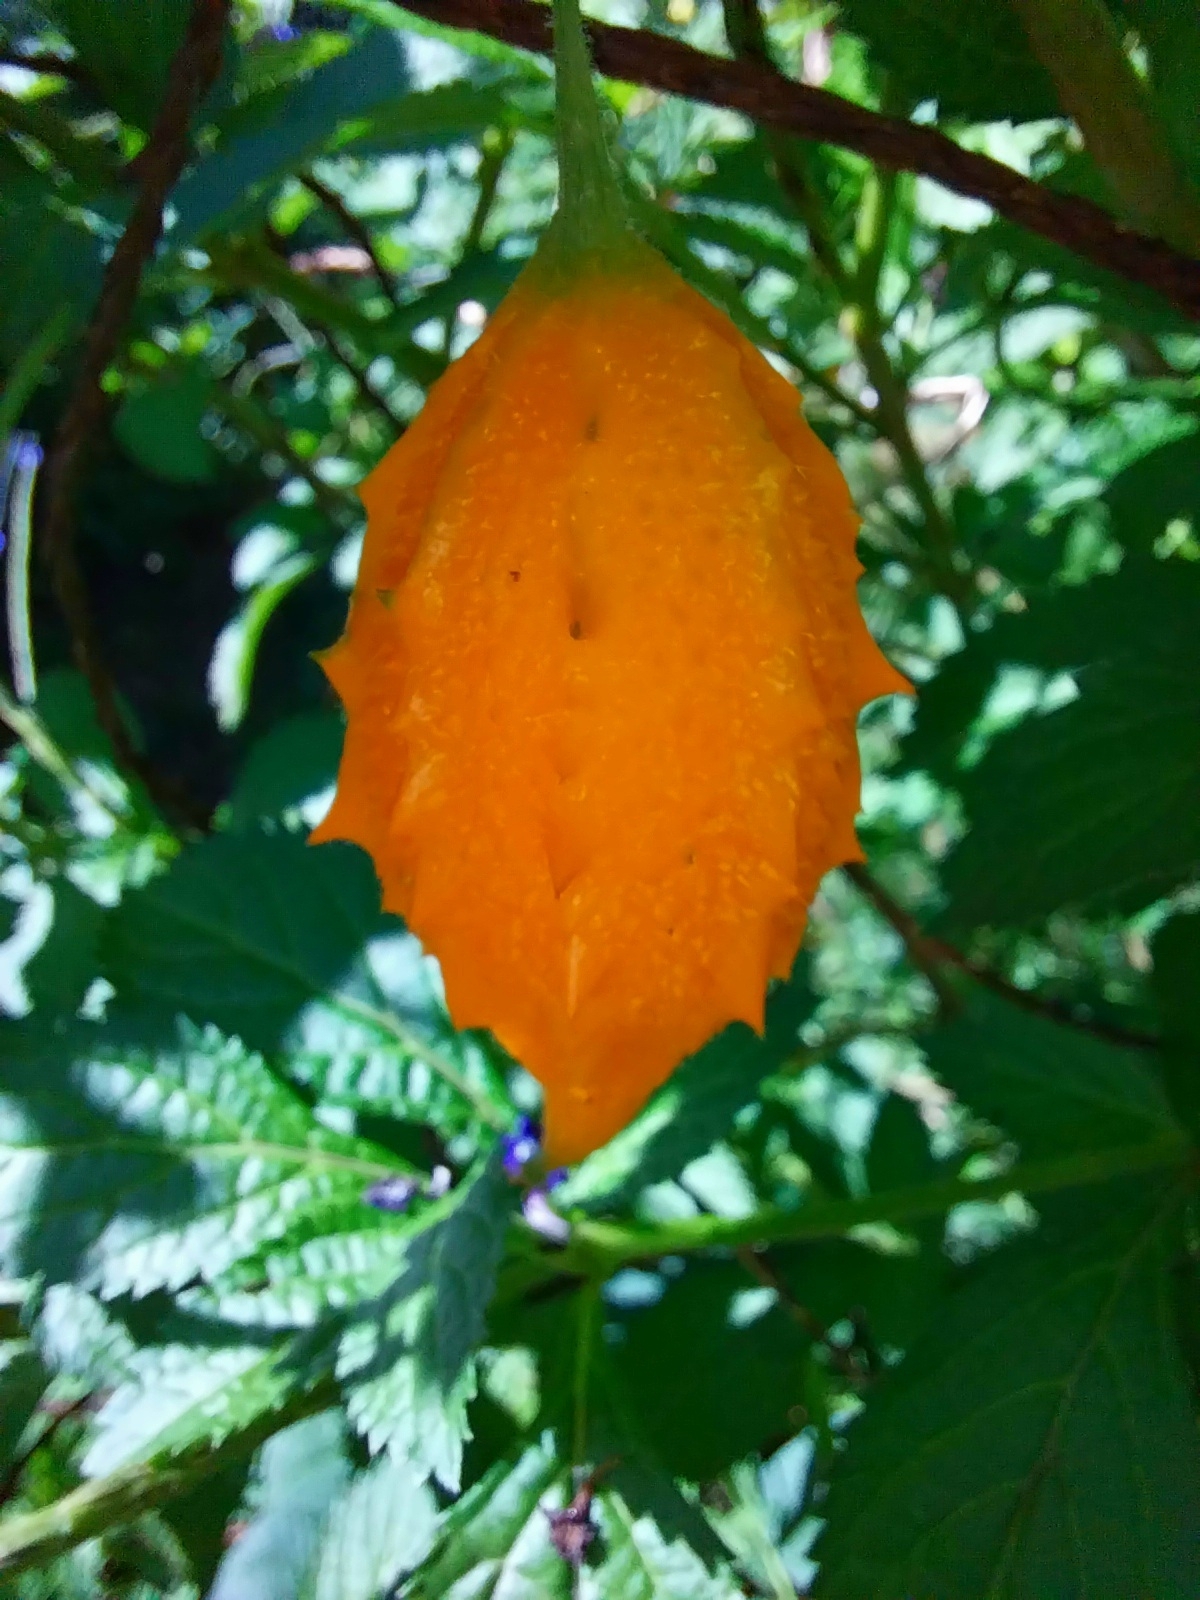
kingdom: Plantae
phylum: Tracheophyta
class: Magnoliopsida
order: Cucurbitales
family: Cucurbitaceae
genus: Momordica
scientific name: Momordica charantia
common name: Balsampear
